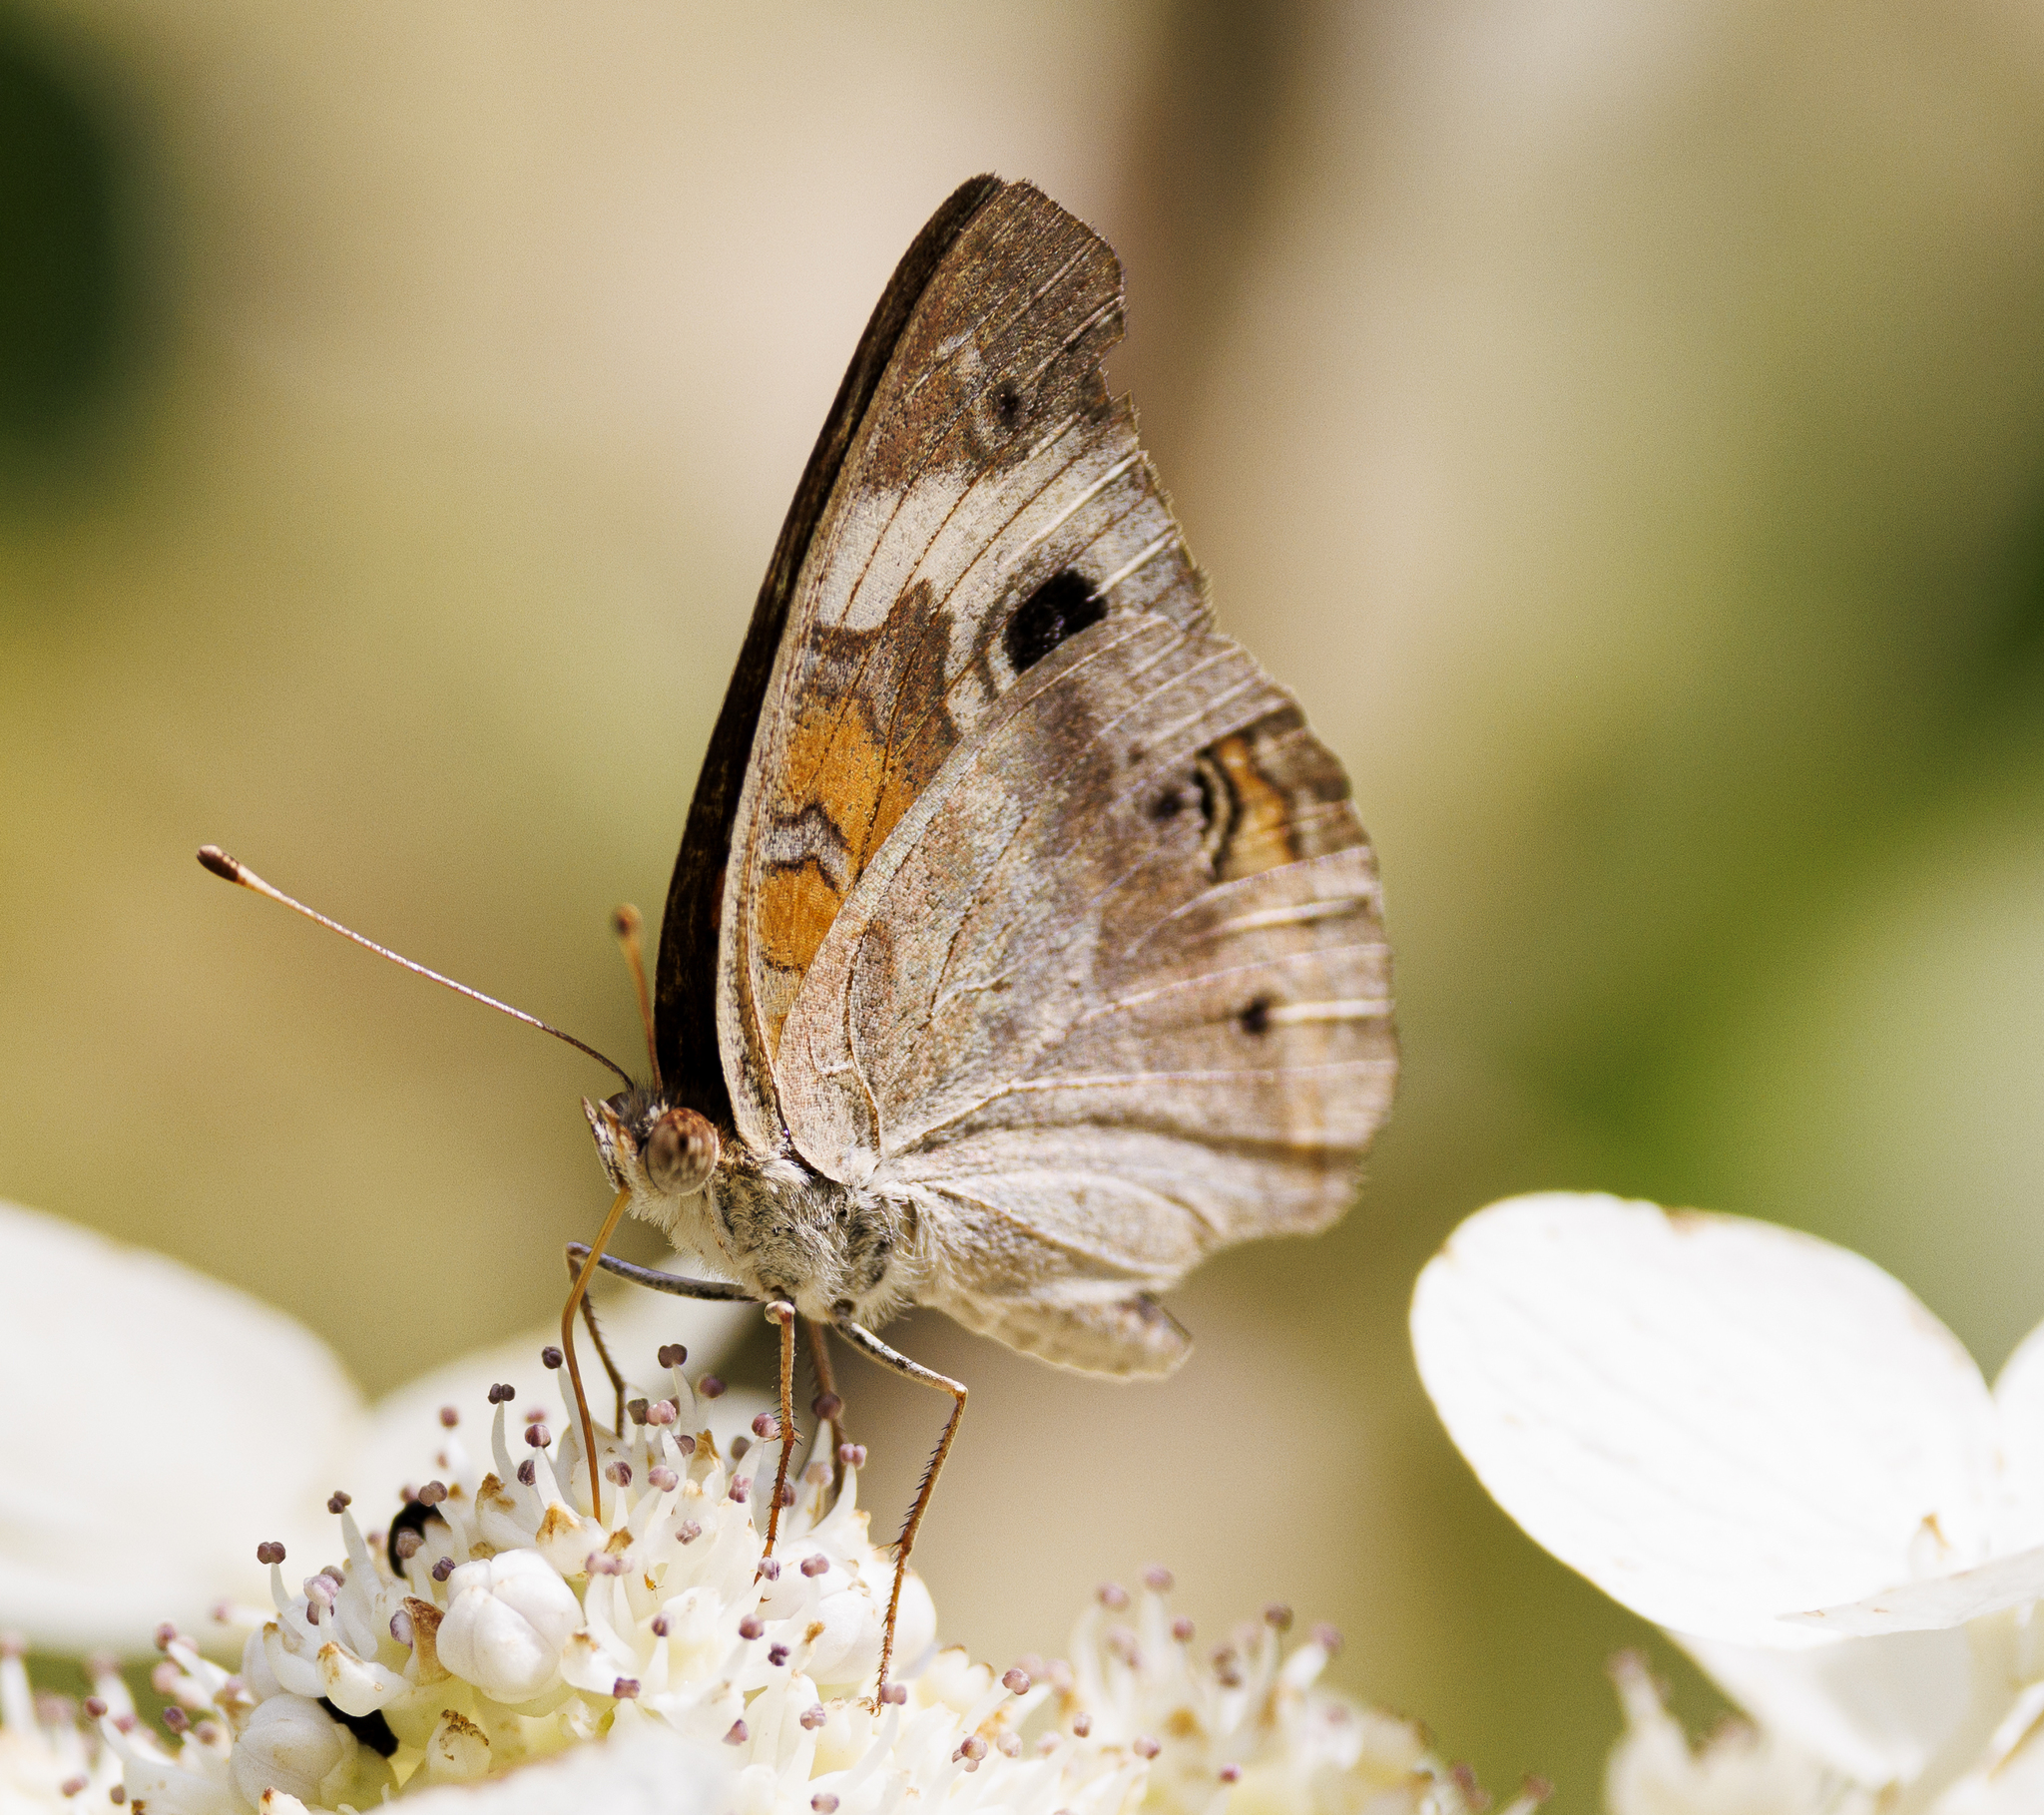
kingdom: Animalia
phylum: Arthropoda
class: Insecta
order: Lepidoptera
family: Nymphalidae
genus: Junonia
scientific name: Junonia coenia
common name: Common buckeye
